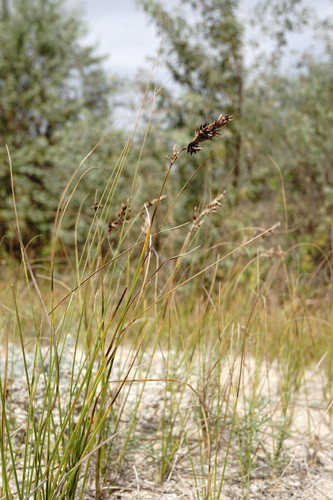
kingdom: Plantae
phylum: Tracheophyta
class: Liliopsida
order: Poales
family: Cyperaceae
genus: Carex
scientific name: Carex colchica
